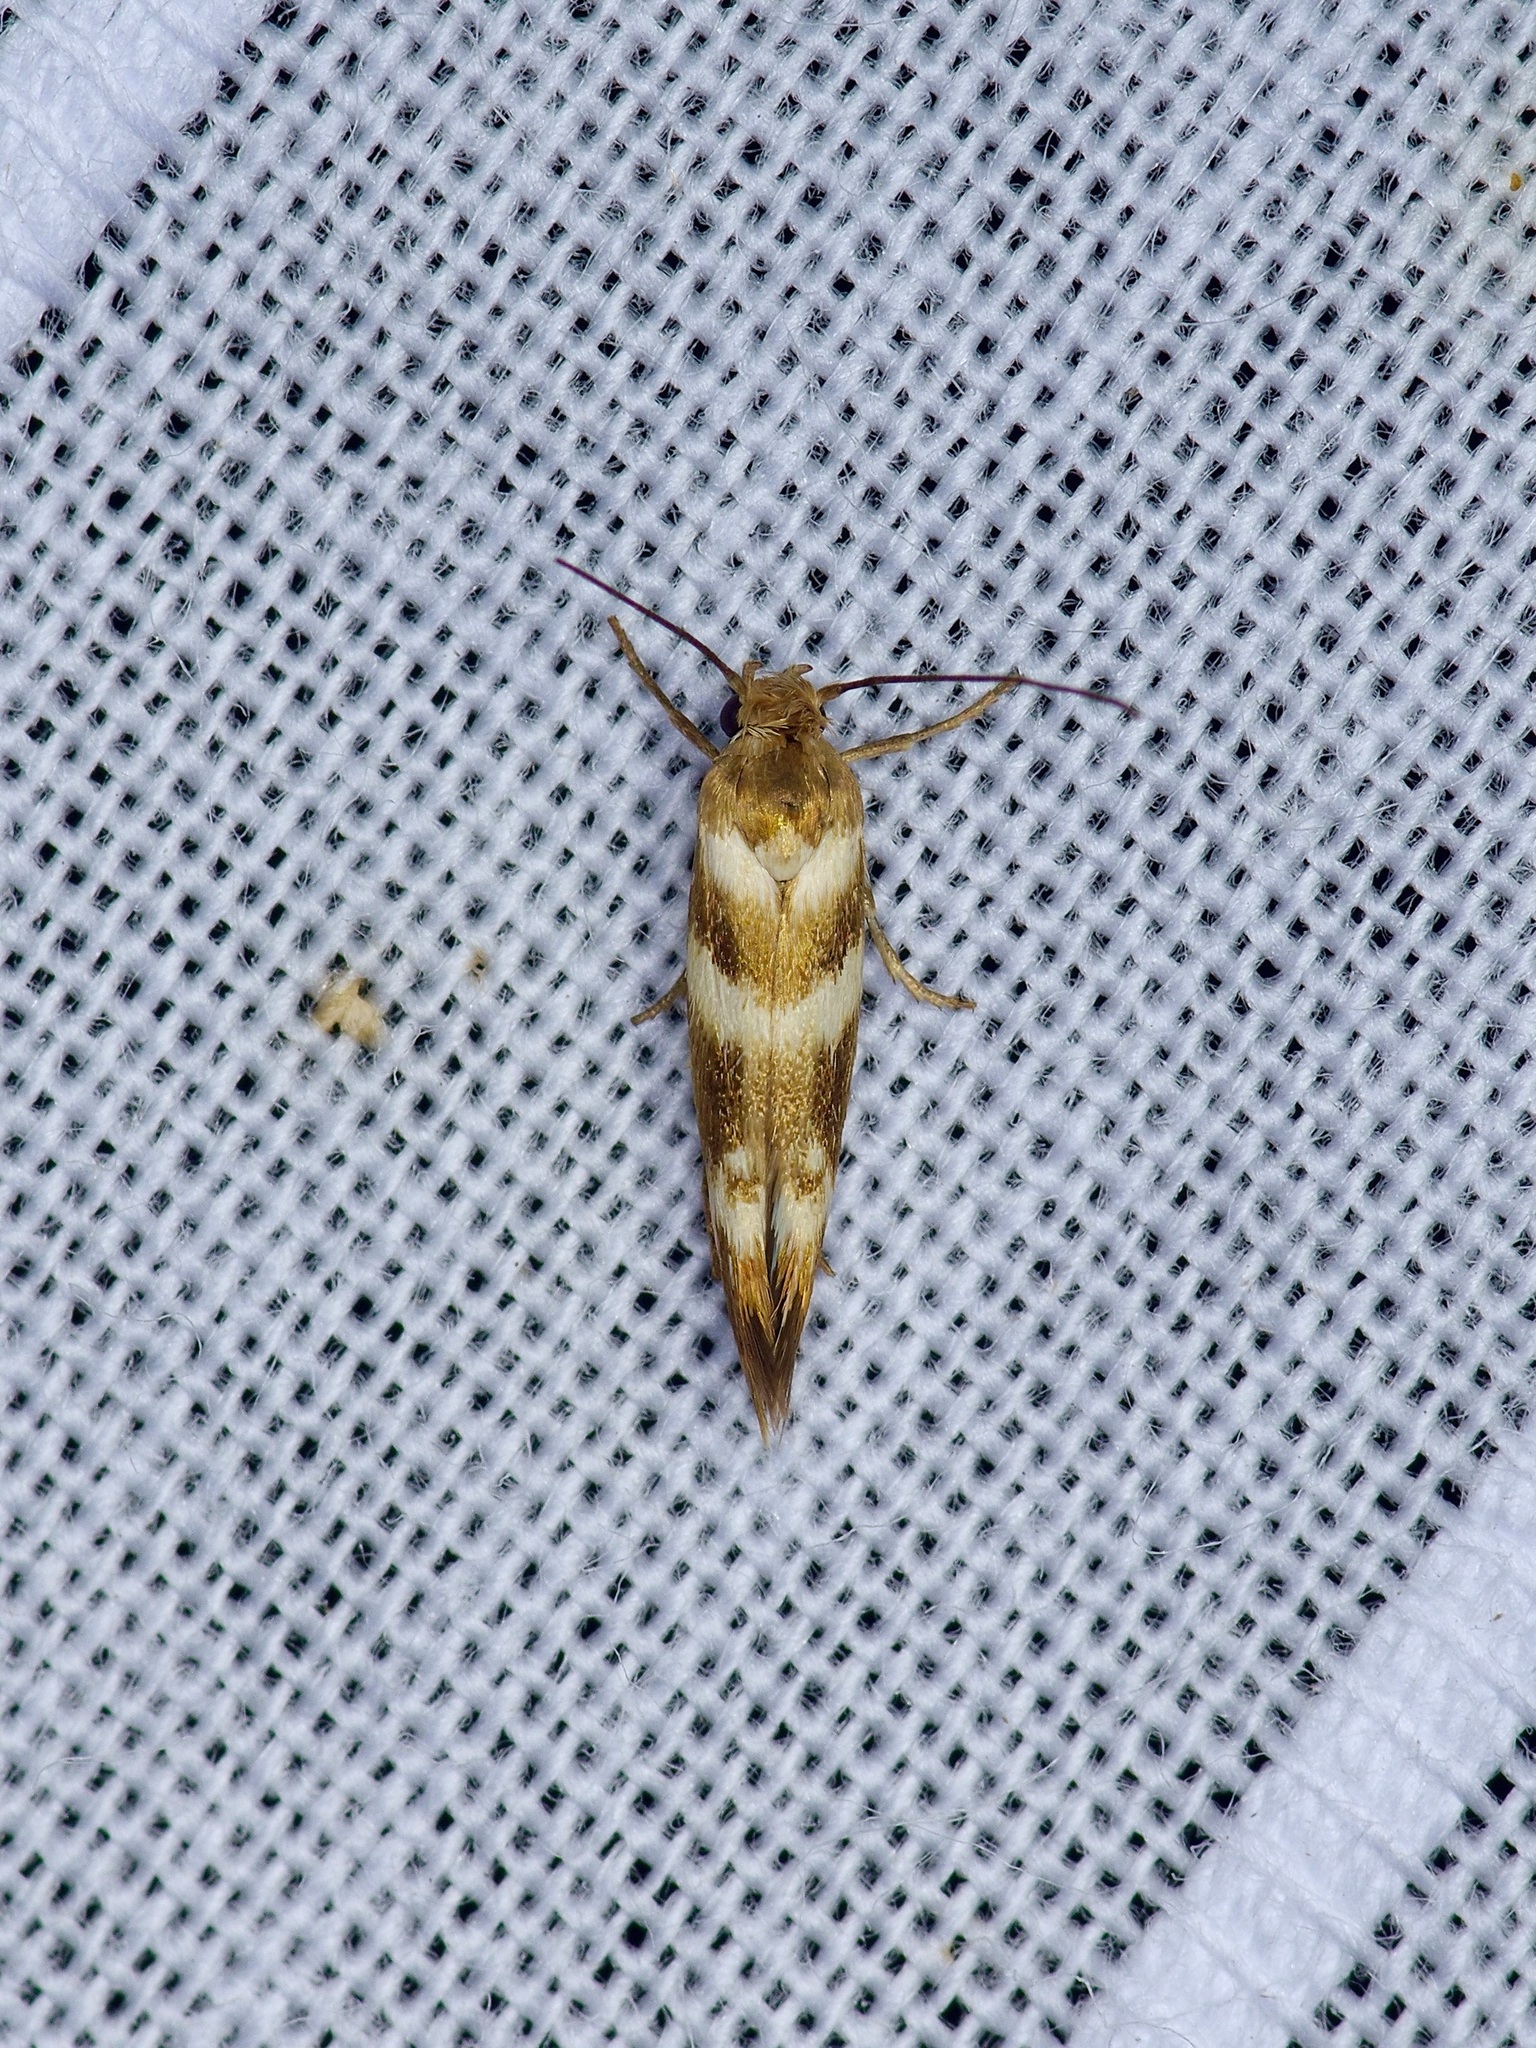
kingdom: Animalia
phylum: Arthropoda
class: Insecta
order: Lepidoptera
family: Scythrididae
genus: Scythris
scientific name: Scythris trivinctella
